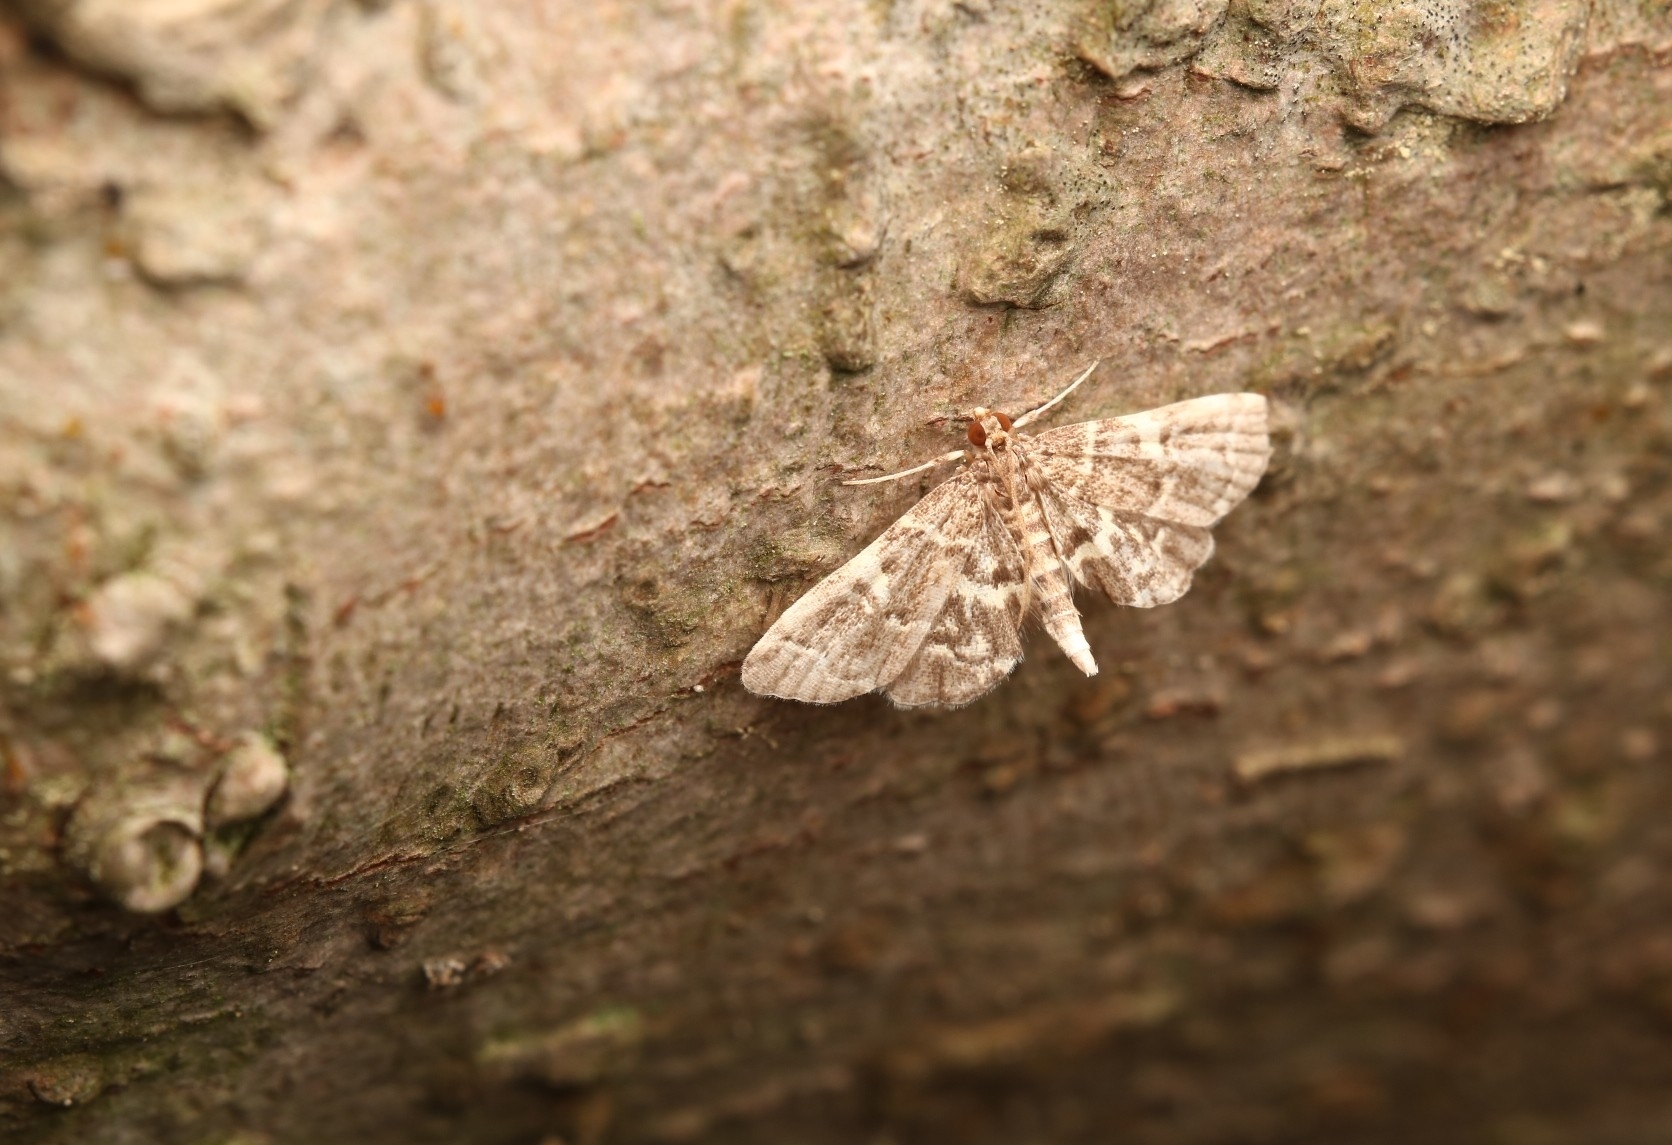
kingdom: Animalia
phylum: Arthropoda
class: Insecta
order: Lepidoptera
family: Crambidae
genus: Anageshna
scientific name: Anageshna primordialis
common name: Yellow-spotted webworm moth
